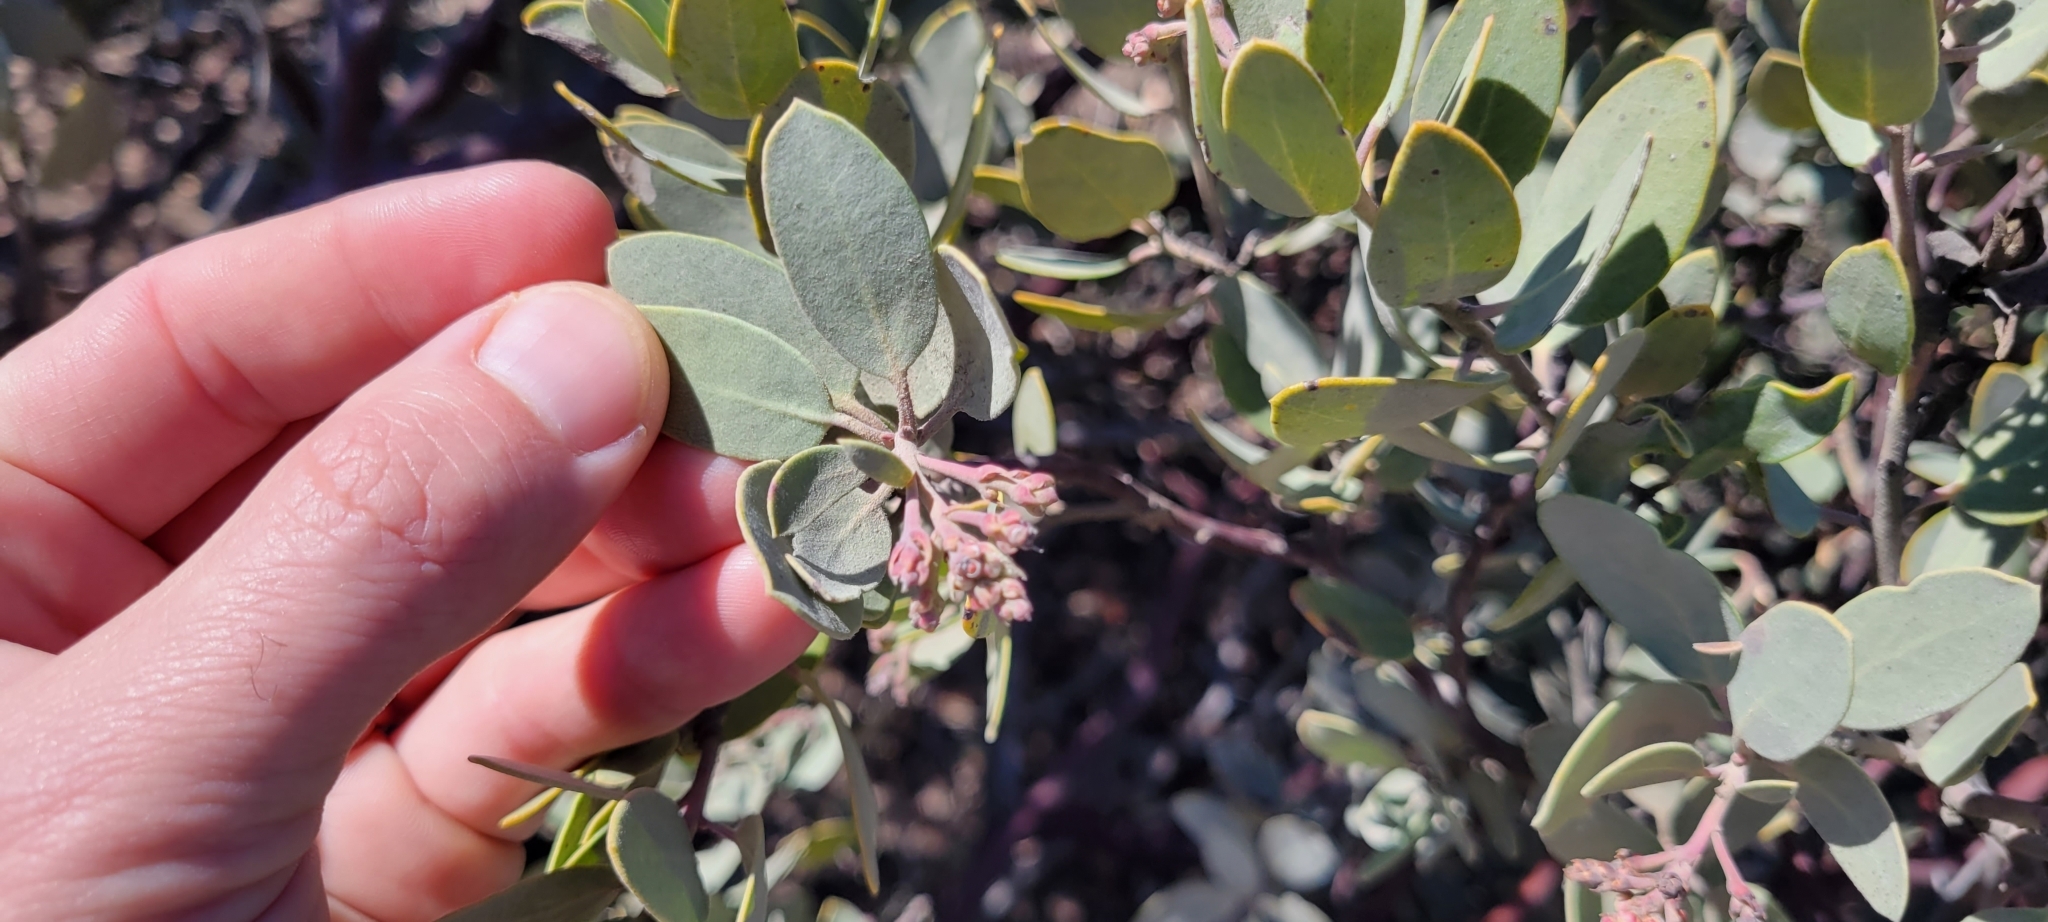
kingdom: Plantae
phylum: Tracheophyta
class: Magnoliopsida
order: Ericales
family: Ericaceae
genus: Arctostaphylos
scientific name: Arctostaphylos glandulosa
